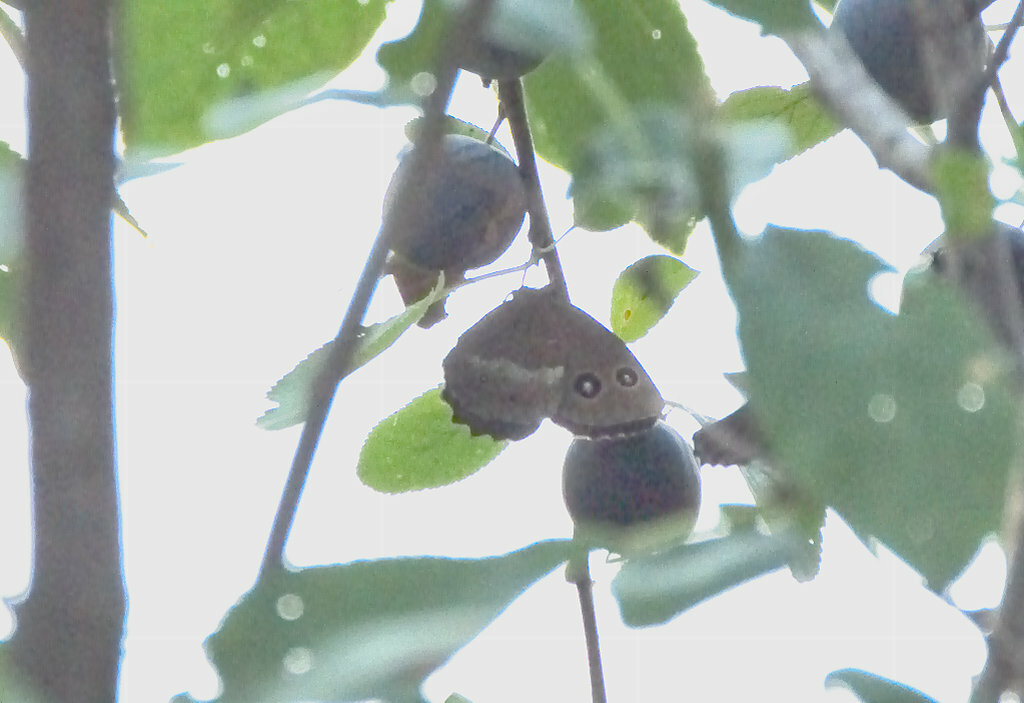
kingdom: Animalia
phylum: Arthropoda
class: Insecta
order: Lepidoptera
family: Nymphalidae
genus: Minois
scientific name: Minois dryas
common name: Dryad
